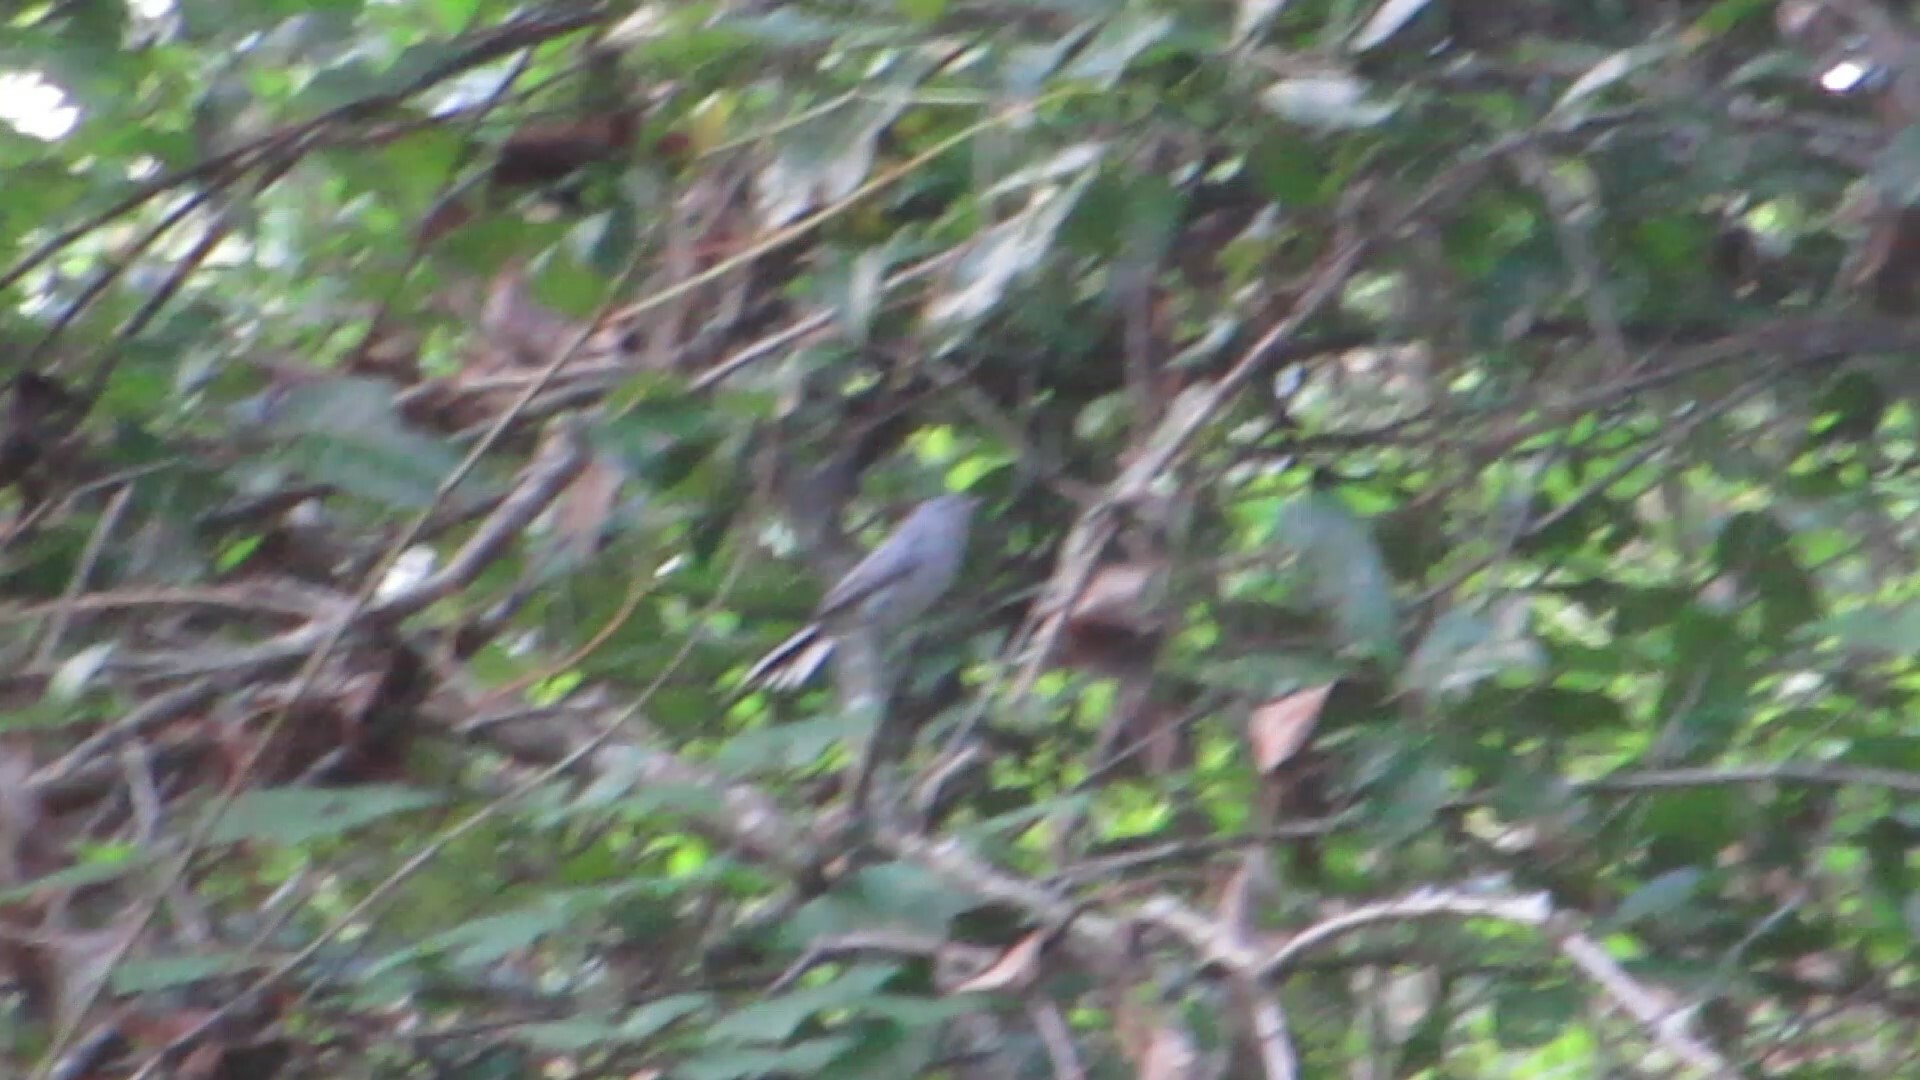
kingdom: Animalia
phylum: Chordata
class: Aves
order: Passeriformes
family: Polioptilidae
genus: Polioptila
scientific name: Polioptila caerulea
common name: Blue-gray gnatcatcher
